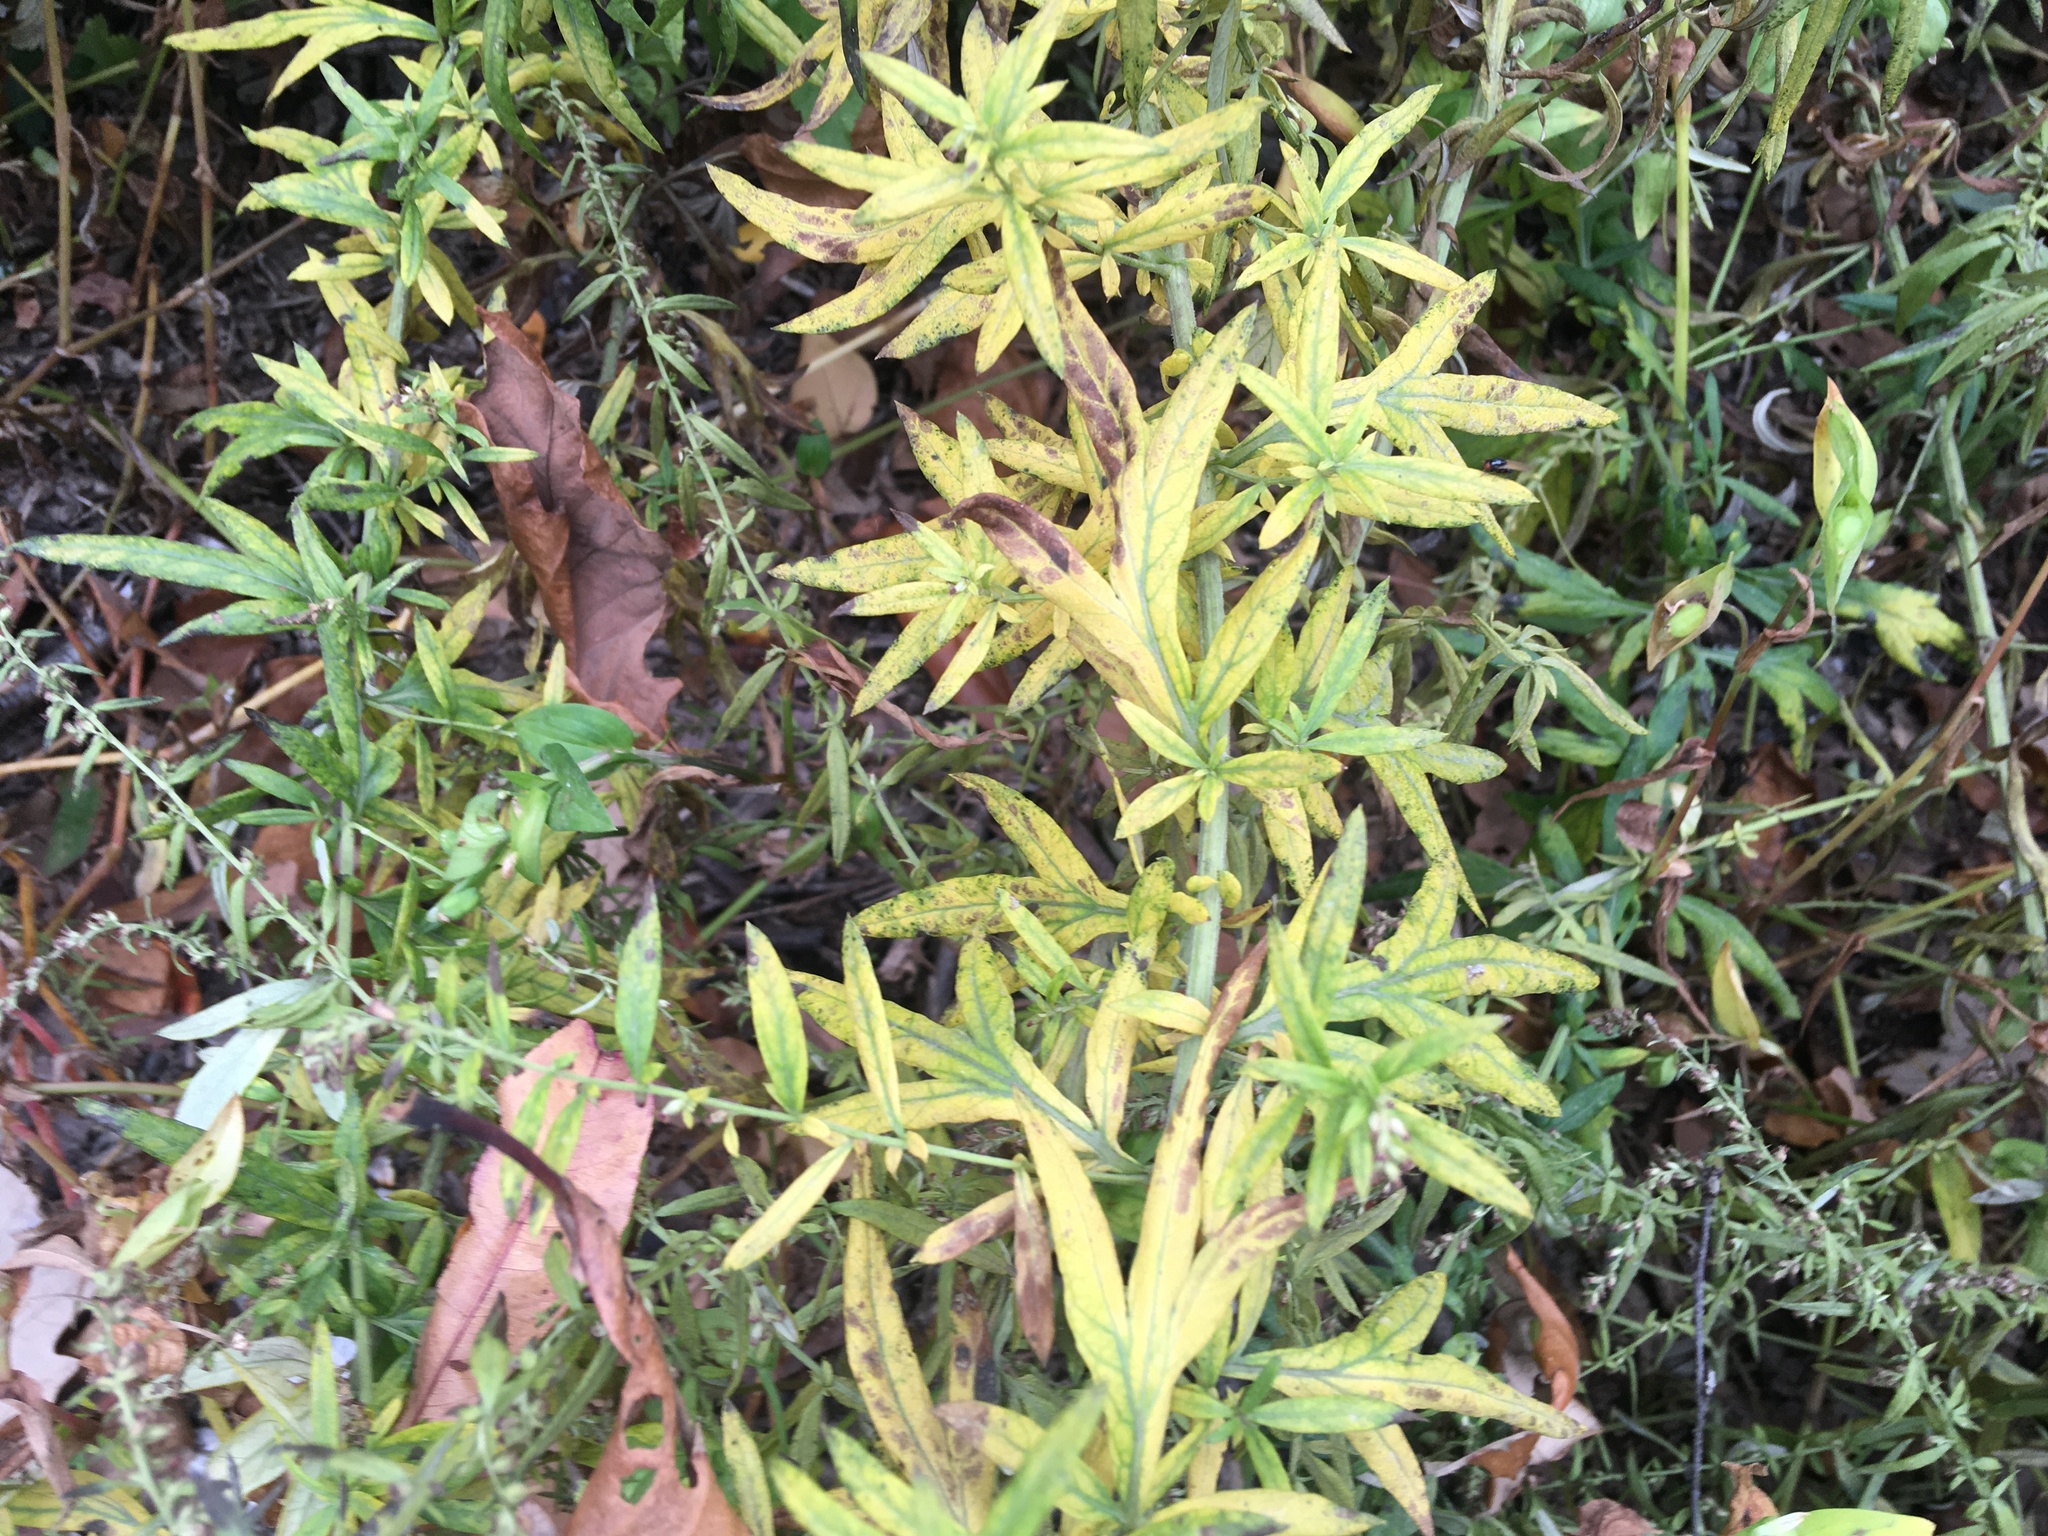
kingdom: Plantae
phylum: Tracheophyta
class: Magnoliopsida
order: Asterales
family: Asteraceae
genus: Artemisia
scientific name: Artemisia vulgaris
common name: Mugwort
